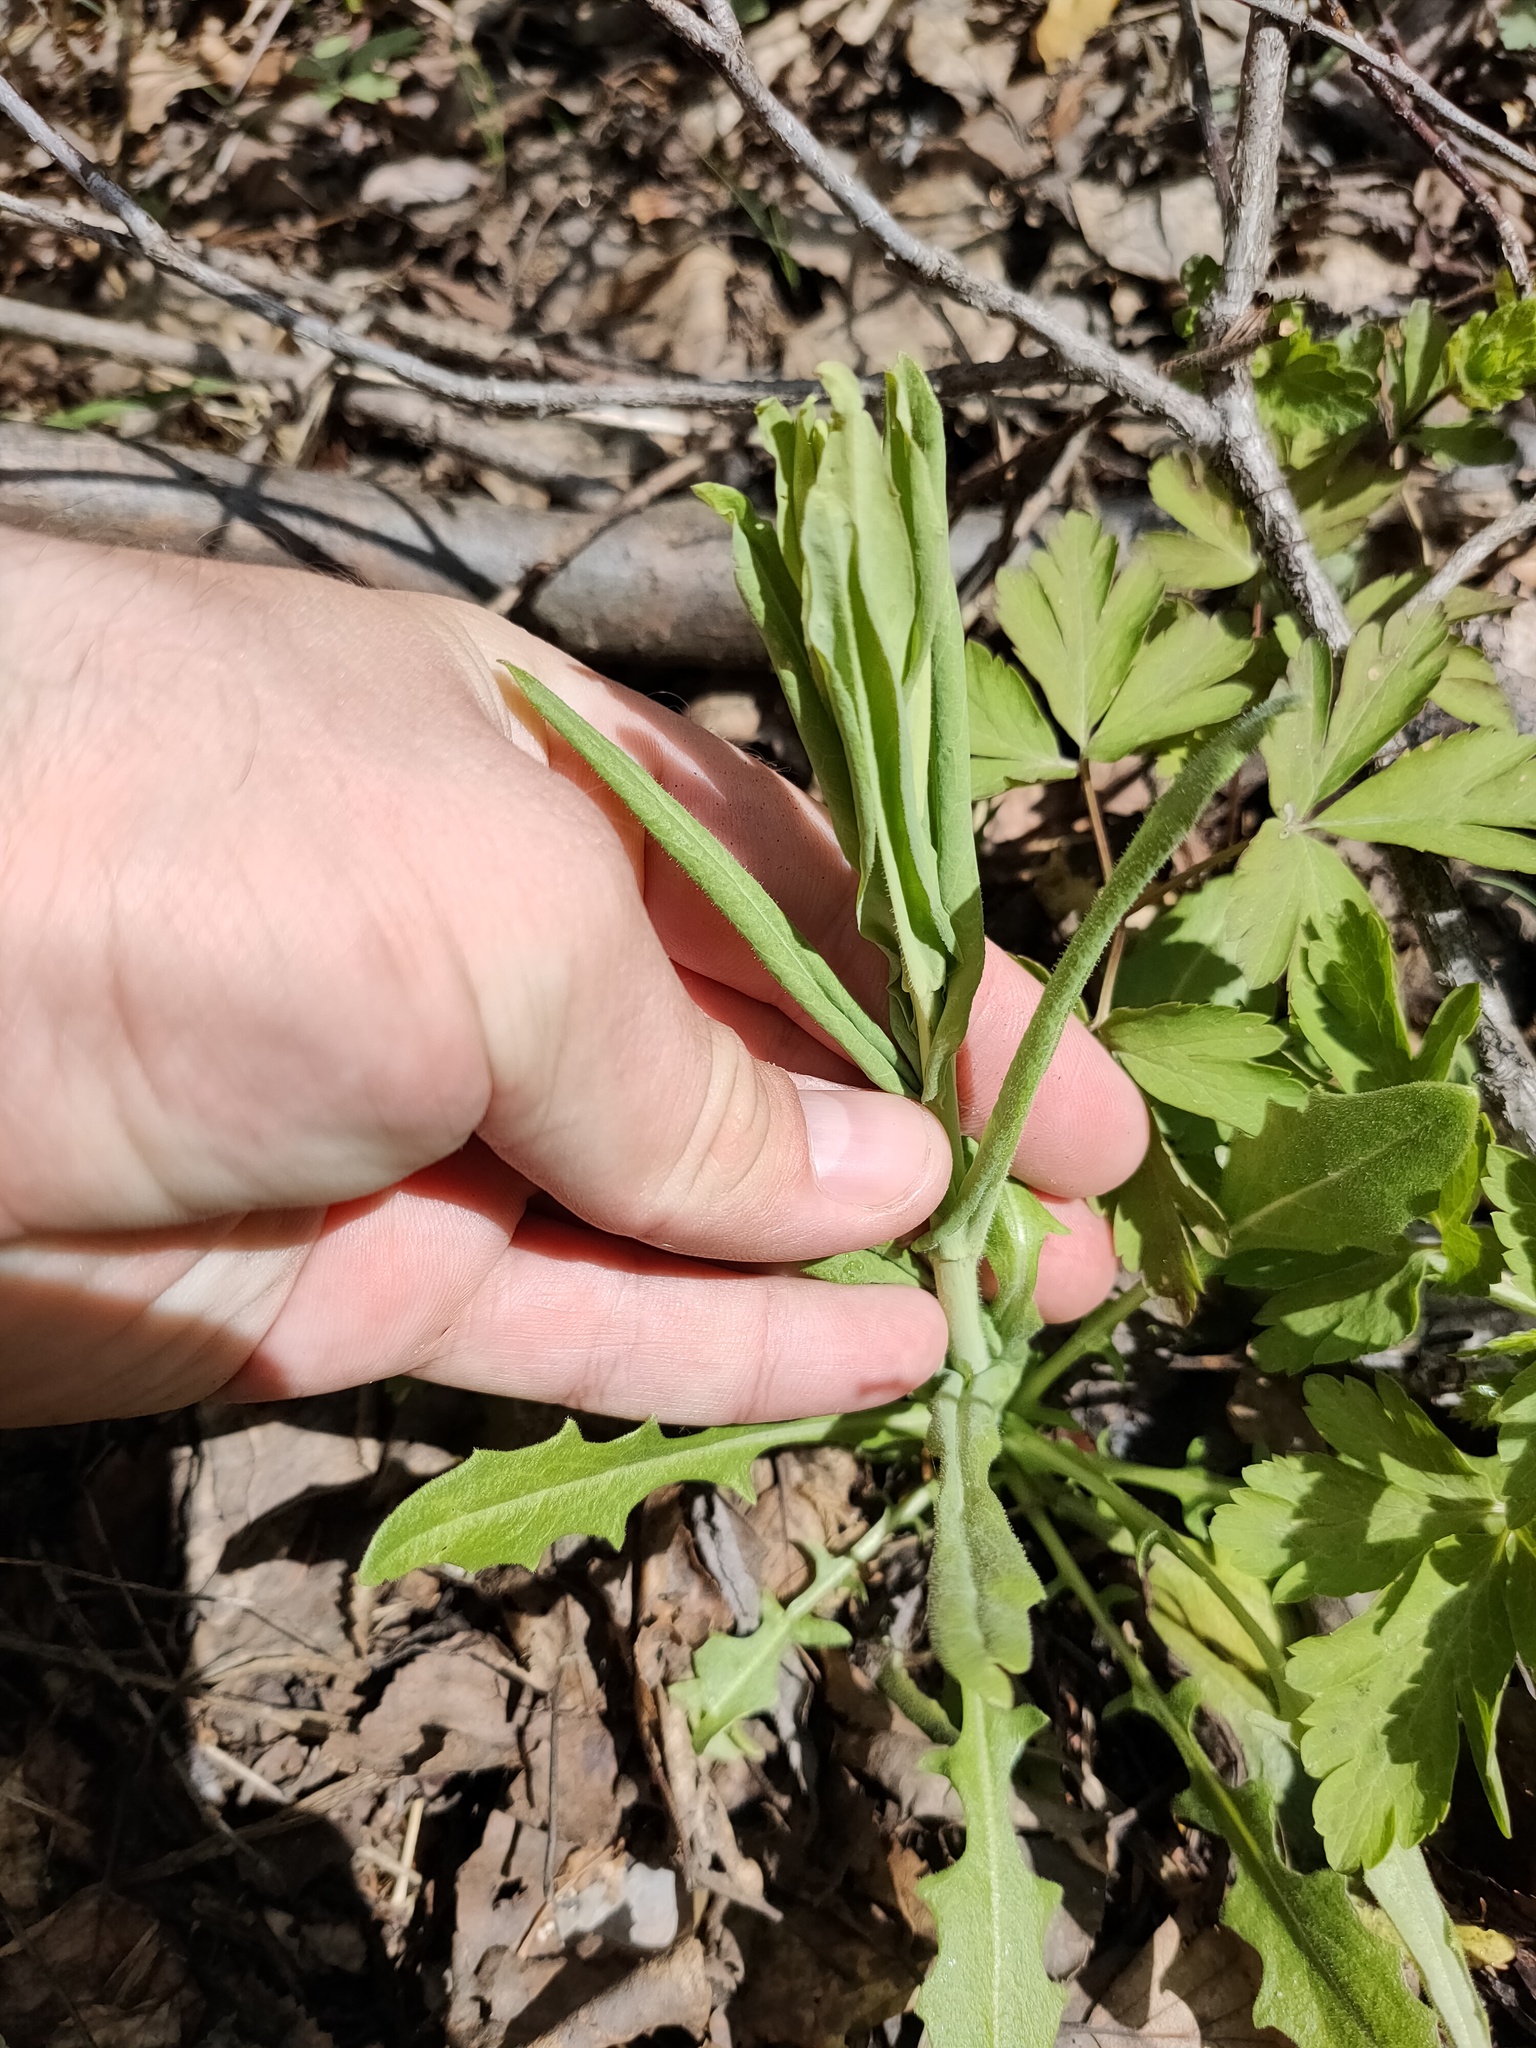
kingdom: Plantae
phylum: Tracheophyta
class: Magnoliopsida
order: Brassicales
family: Brassicaceae
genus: Turritis
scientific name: Turritis glabra
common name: Tower rockcress
